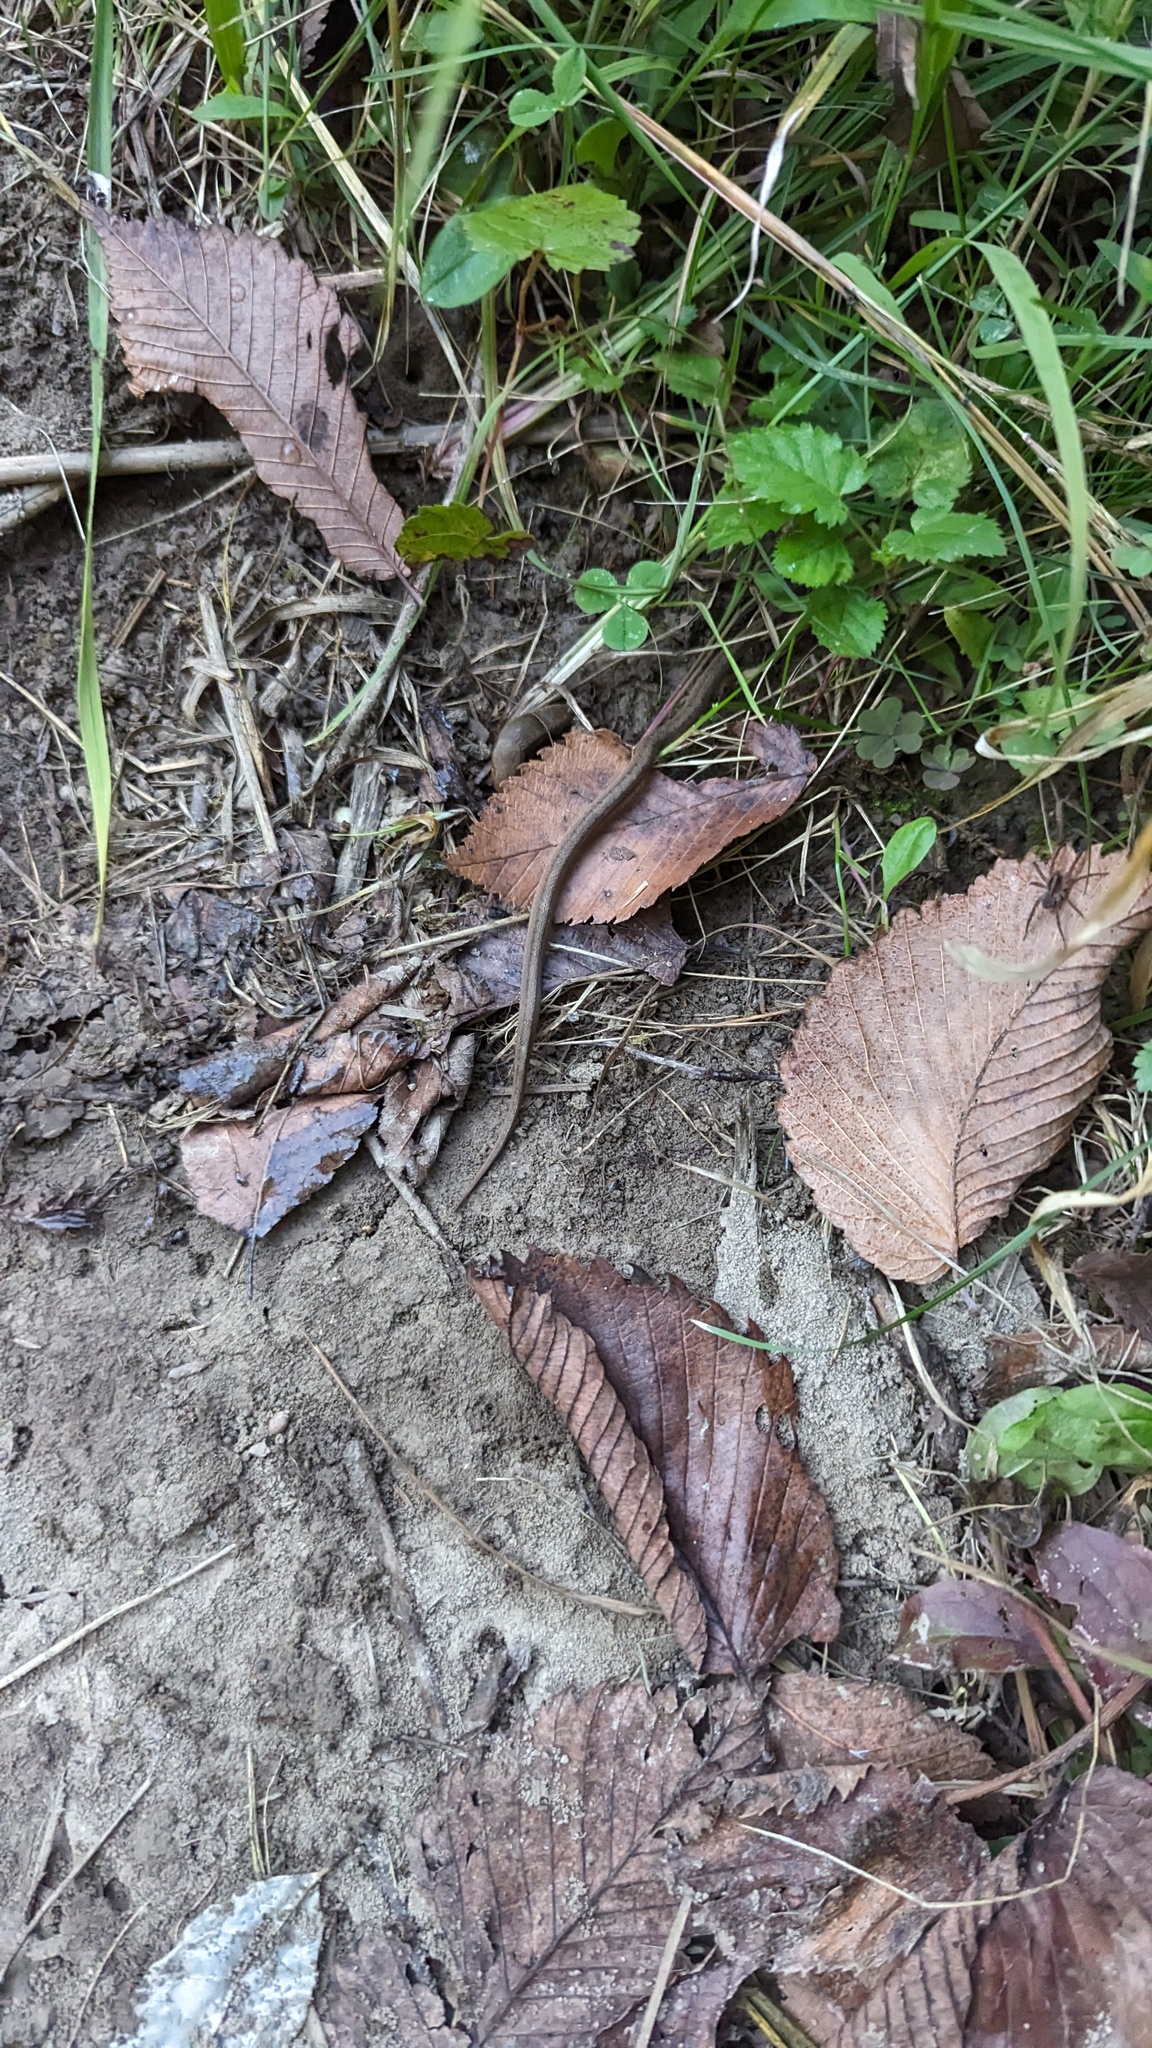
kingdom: Animalia
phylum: Chordata
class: Squamata
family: Colubridae
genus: Storeria
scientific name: Storeria dekayi
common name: (dekay’s) brown snake
